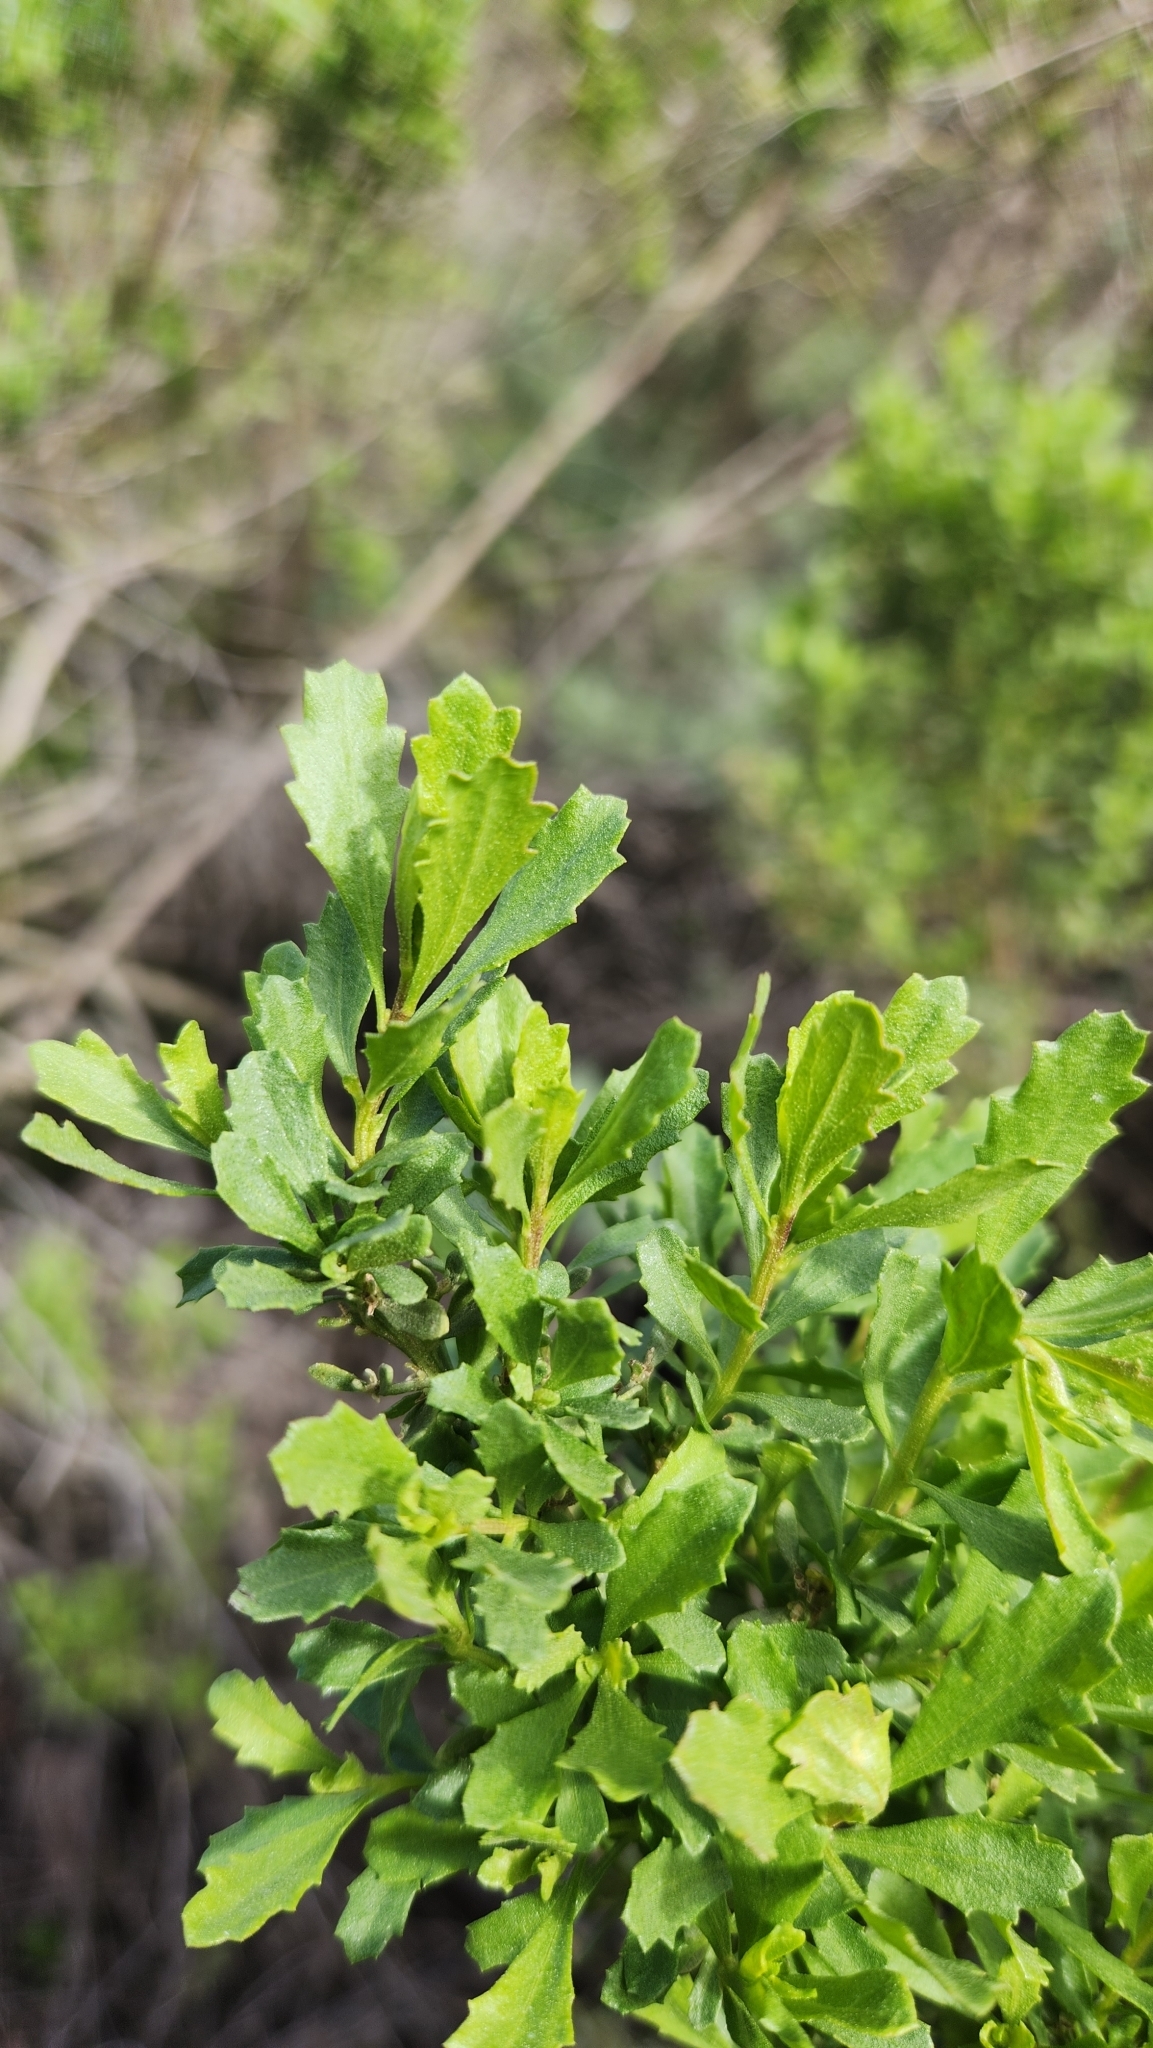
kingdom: Plantae
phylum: Tracheophyta
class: Magnoliopsida
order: Asterales
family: Asteraceae
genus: Baccharis
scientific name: Baccharis pilularis
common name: Coyotebrush
